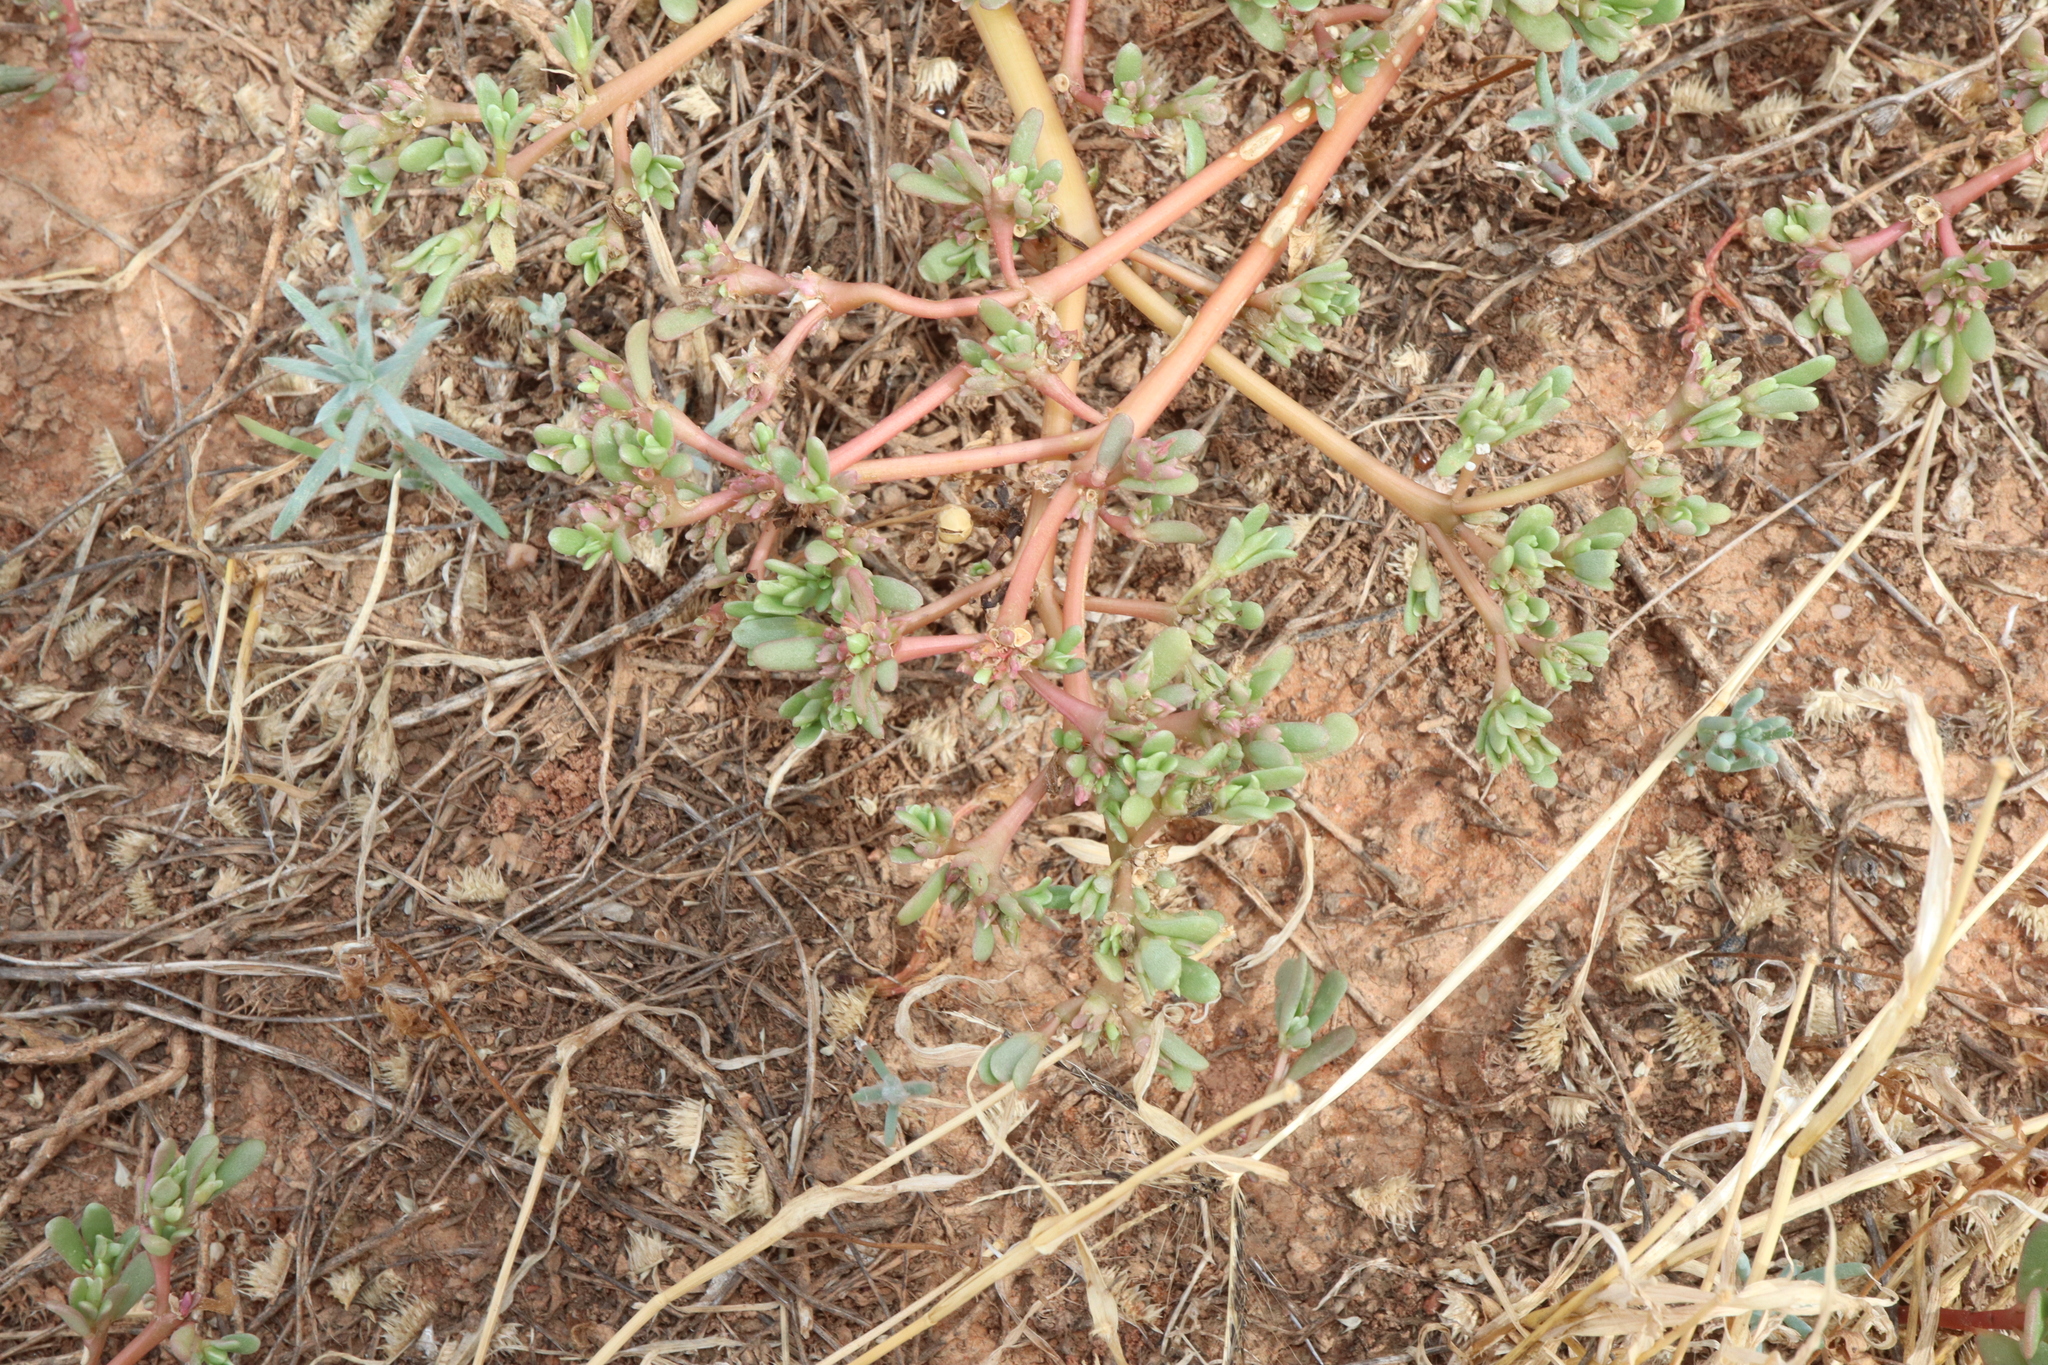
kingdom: Plantae
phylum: Tracheophyta
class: Magnoliopsida
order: Caryophyllales
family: Portulacaceae
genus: Portulaca
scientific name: Portulaca oleracea
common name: Common purslane
